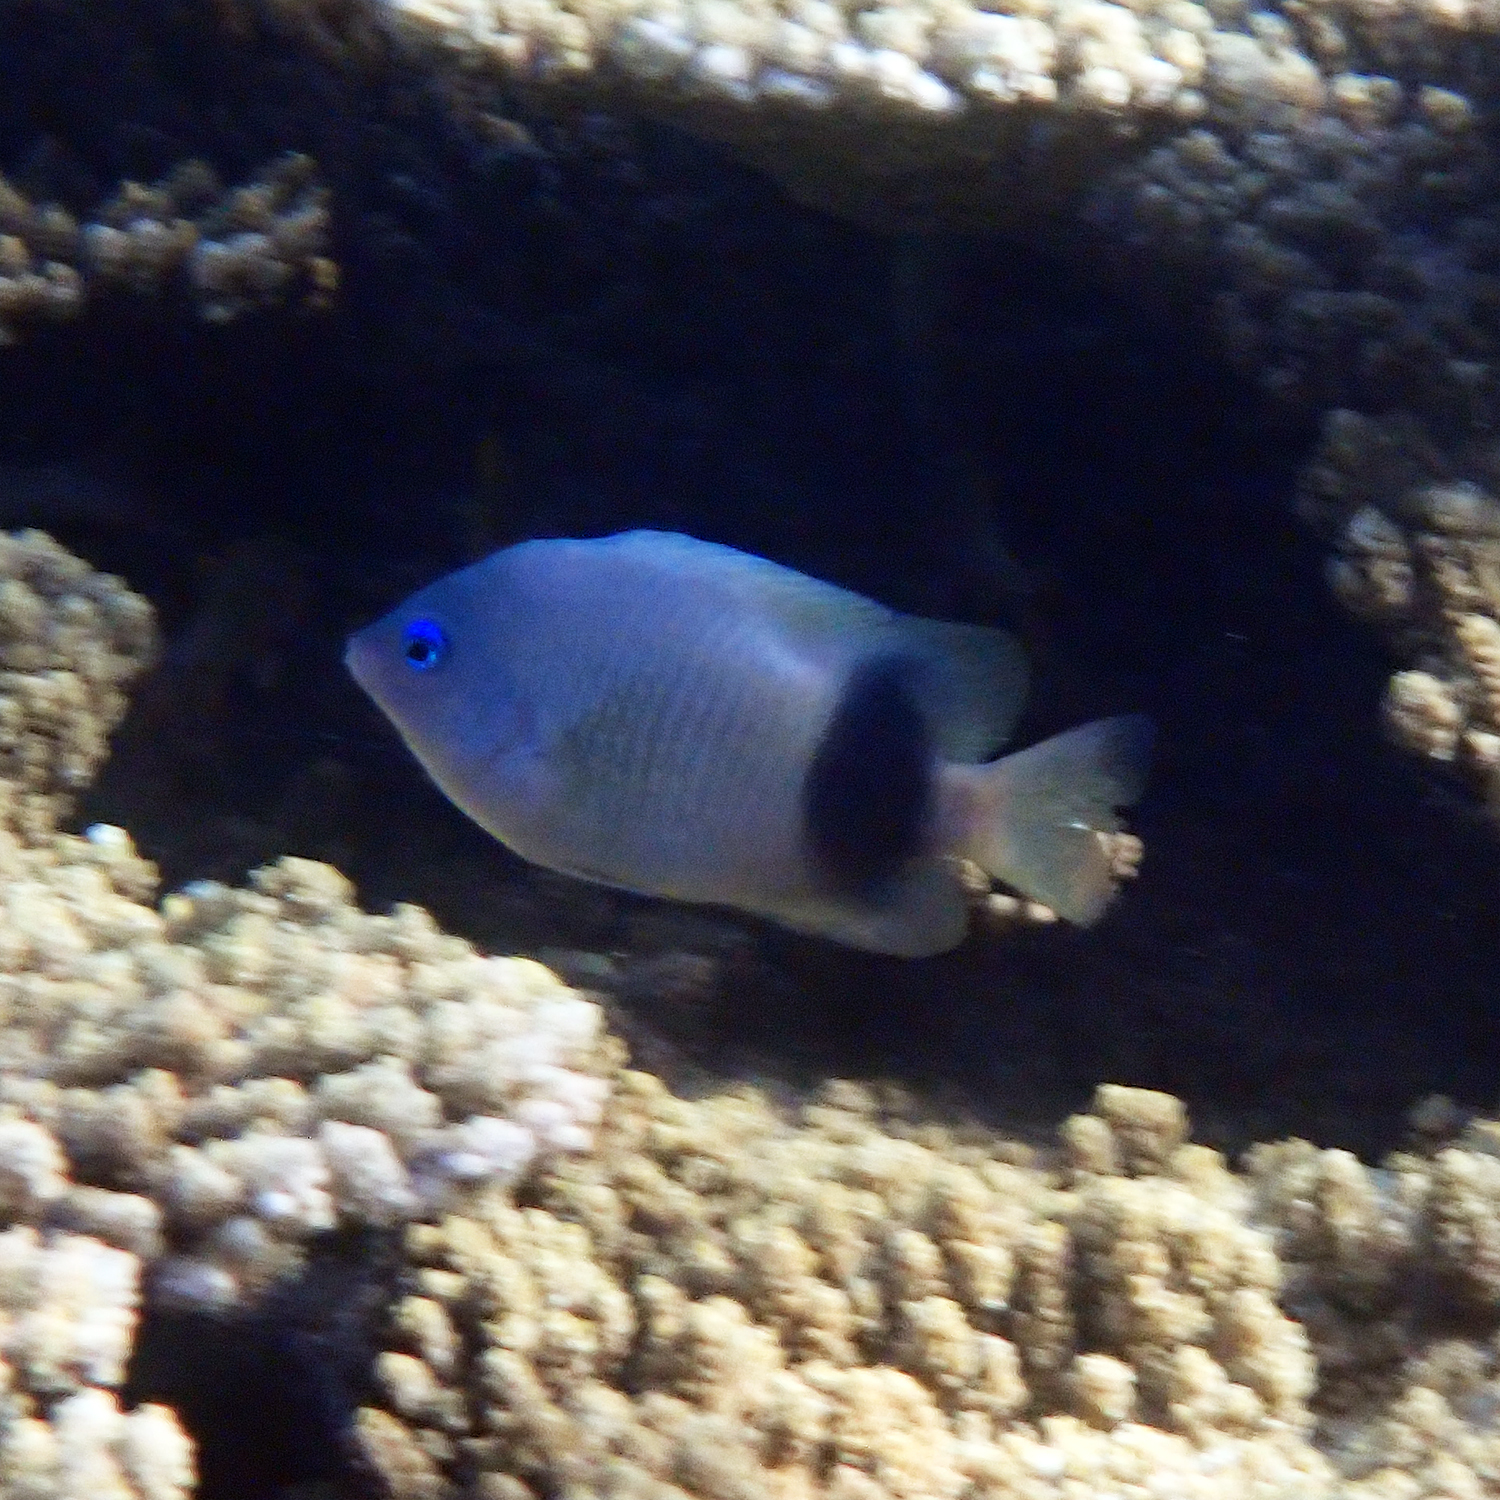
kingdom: Animalia
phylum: Chordata
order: Perciformes
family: Pomacentridae
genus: Plectroglyphidodon
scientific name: Plectroglyphidodon johnstonianus
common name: Johnston damsel
